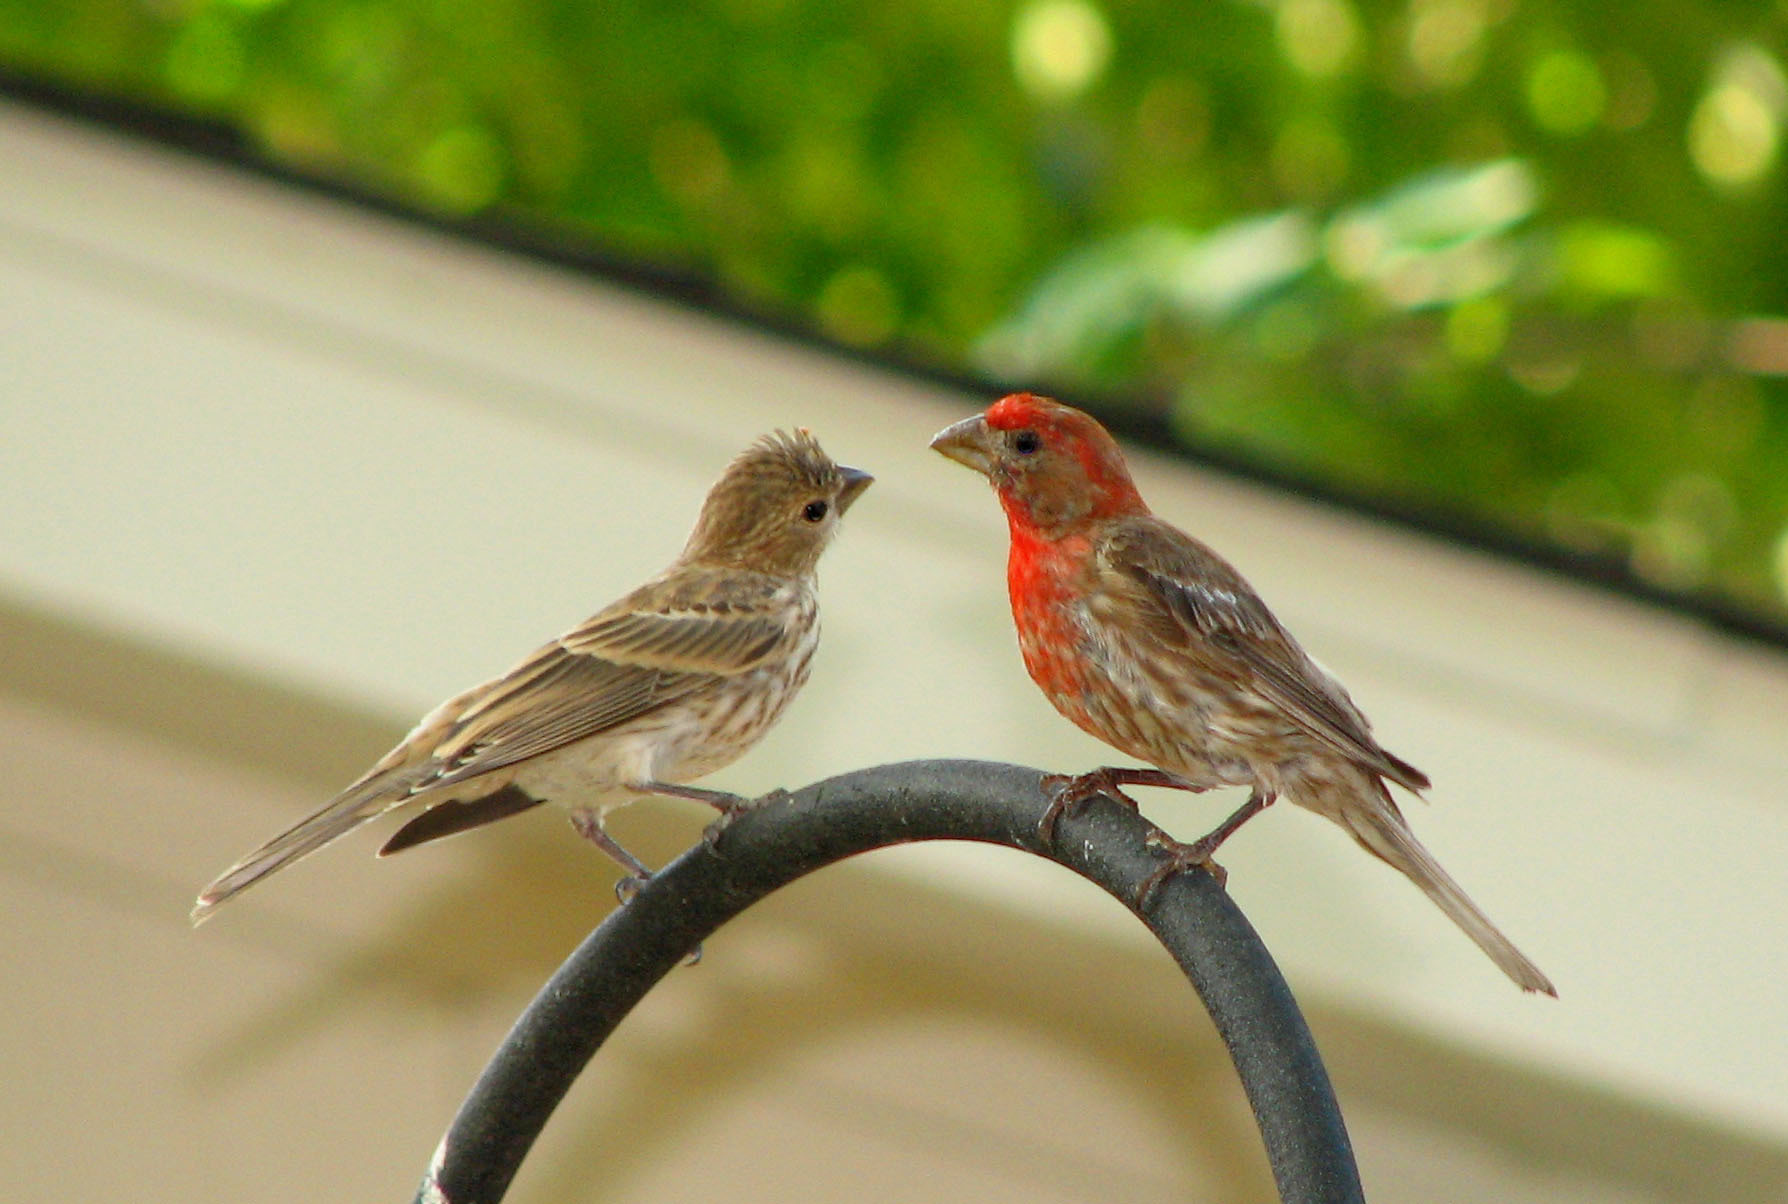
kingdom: Animalia
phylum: Chordata
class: Aves
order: Passeriformes
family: Fringillidae
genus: Haemorhous
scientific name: Haemorhous mexicanus
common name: House finch
